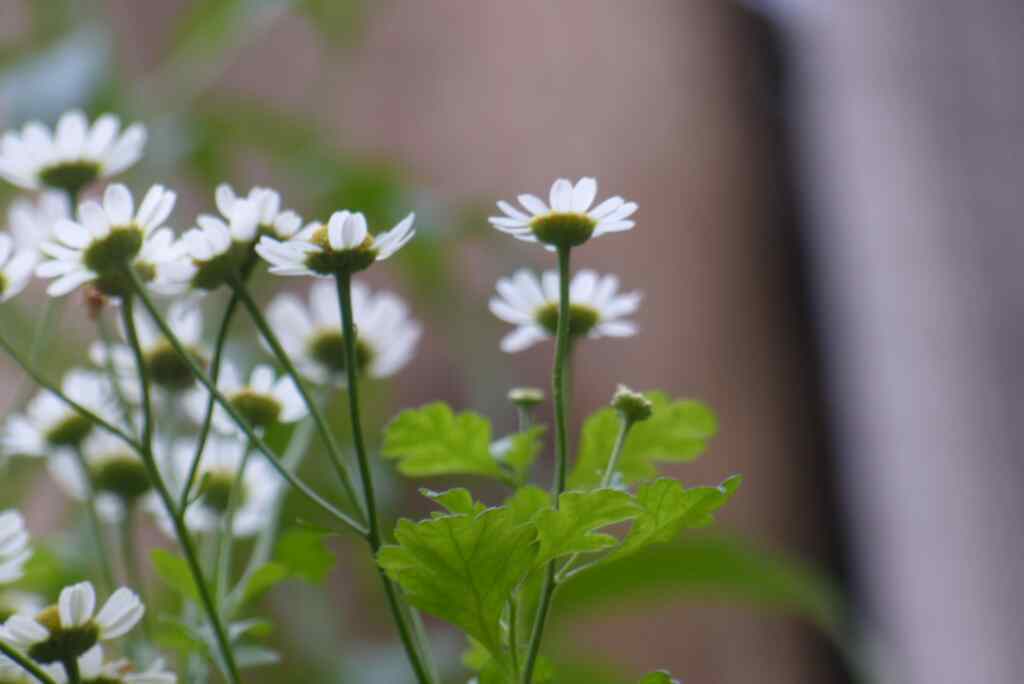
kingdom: Plantae
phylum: Tracheophyta
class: Magnoliopsida
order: Asterales
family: Asteraceae
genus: Tanacetum
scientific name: Tanacetum parthenium
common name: Feverfew
